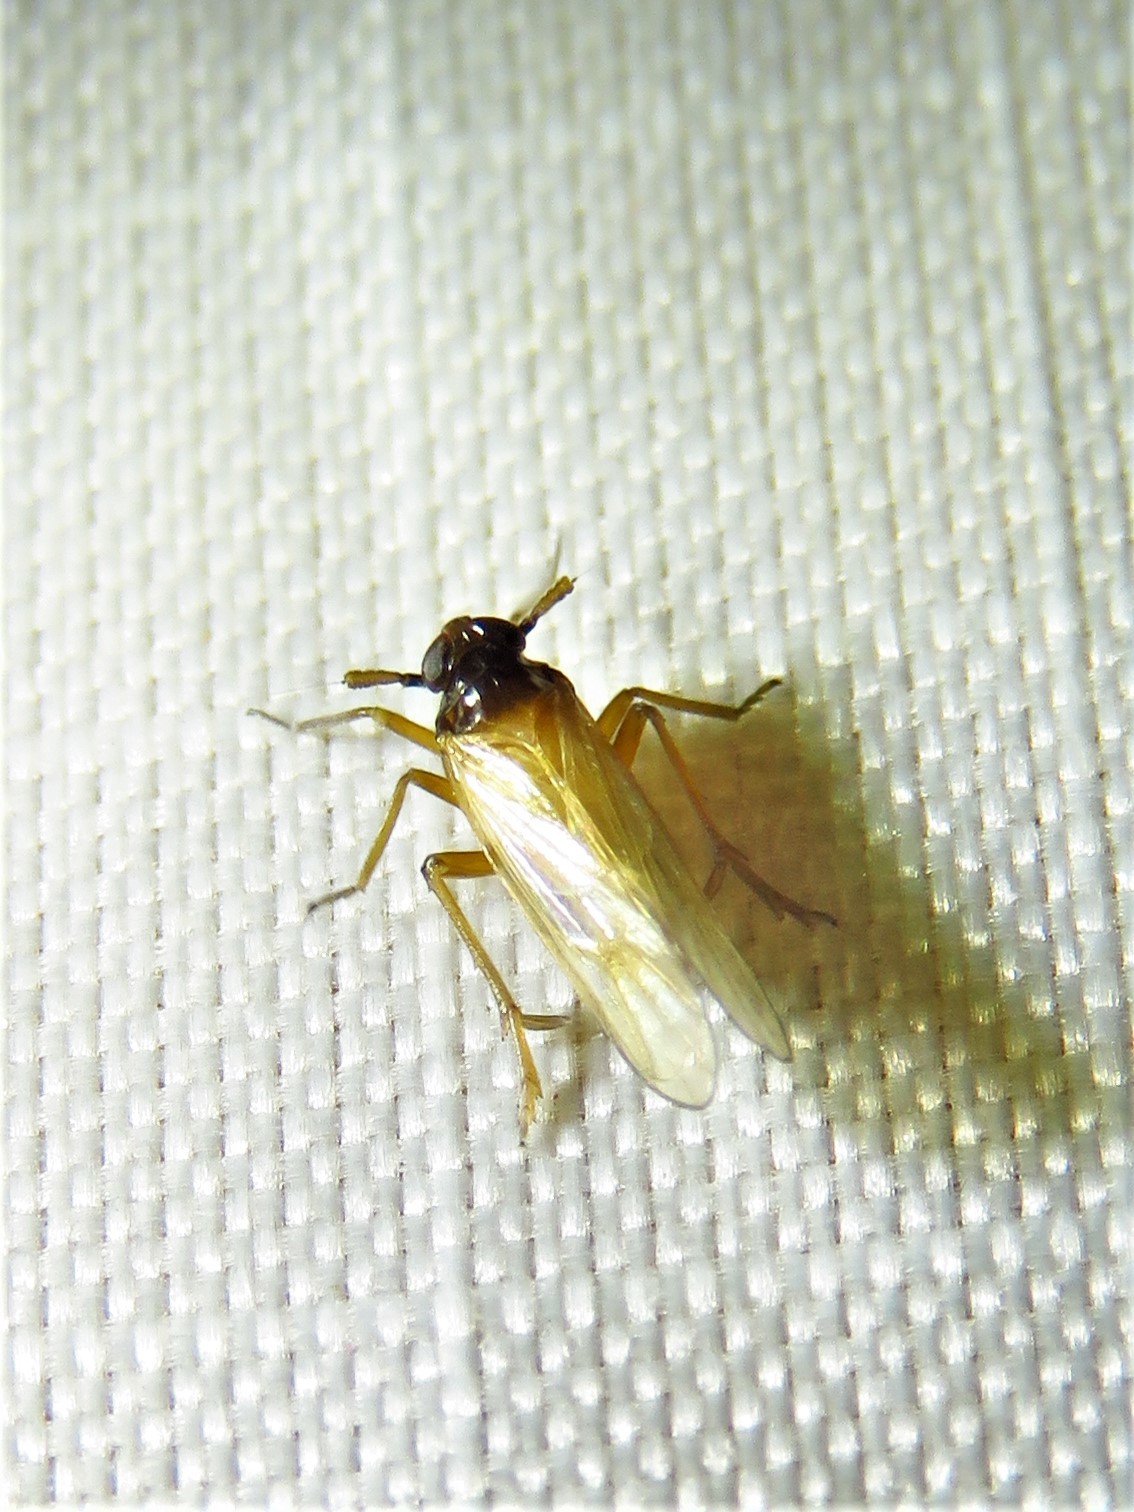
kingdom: Animalia
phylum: Arthropoda
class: Insecta
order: Hemiptera
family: Delphacidae
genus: Penepissonotus
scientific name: Penepissonotus bicolor
